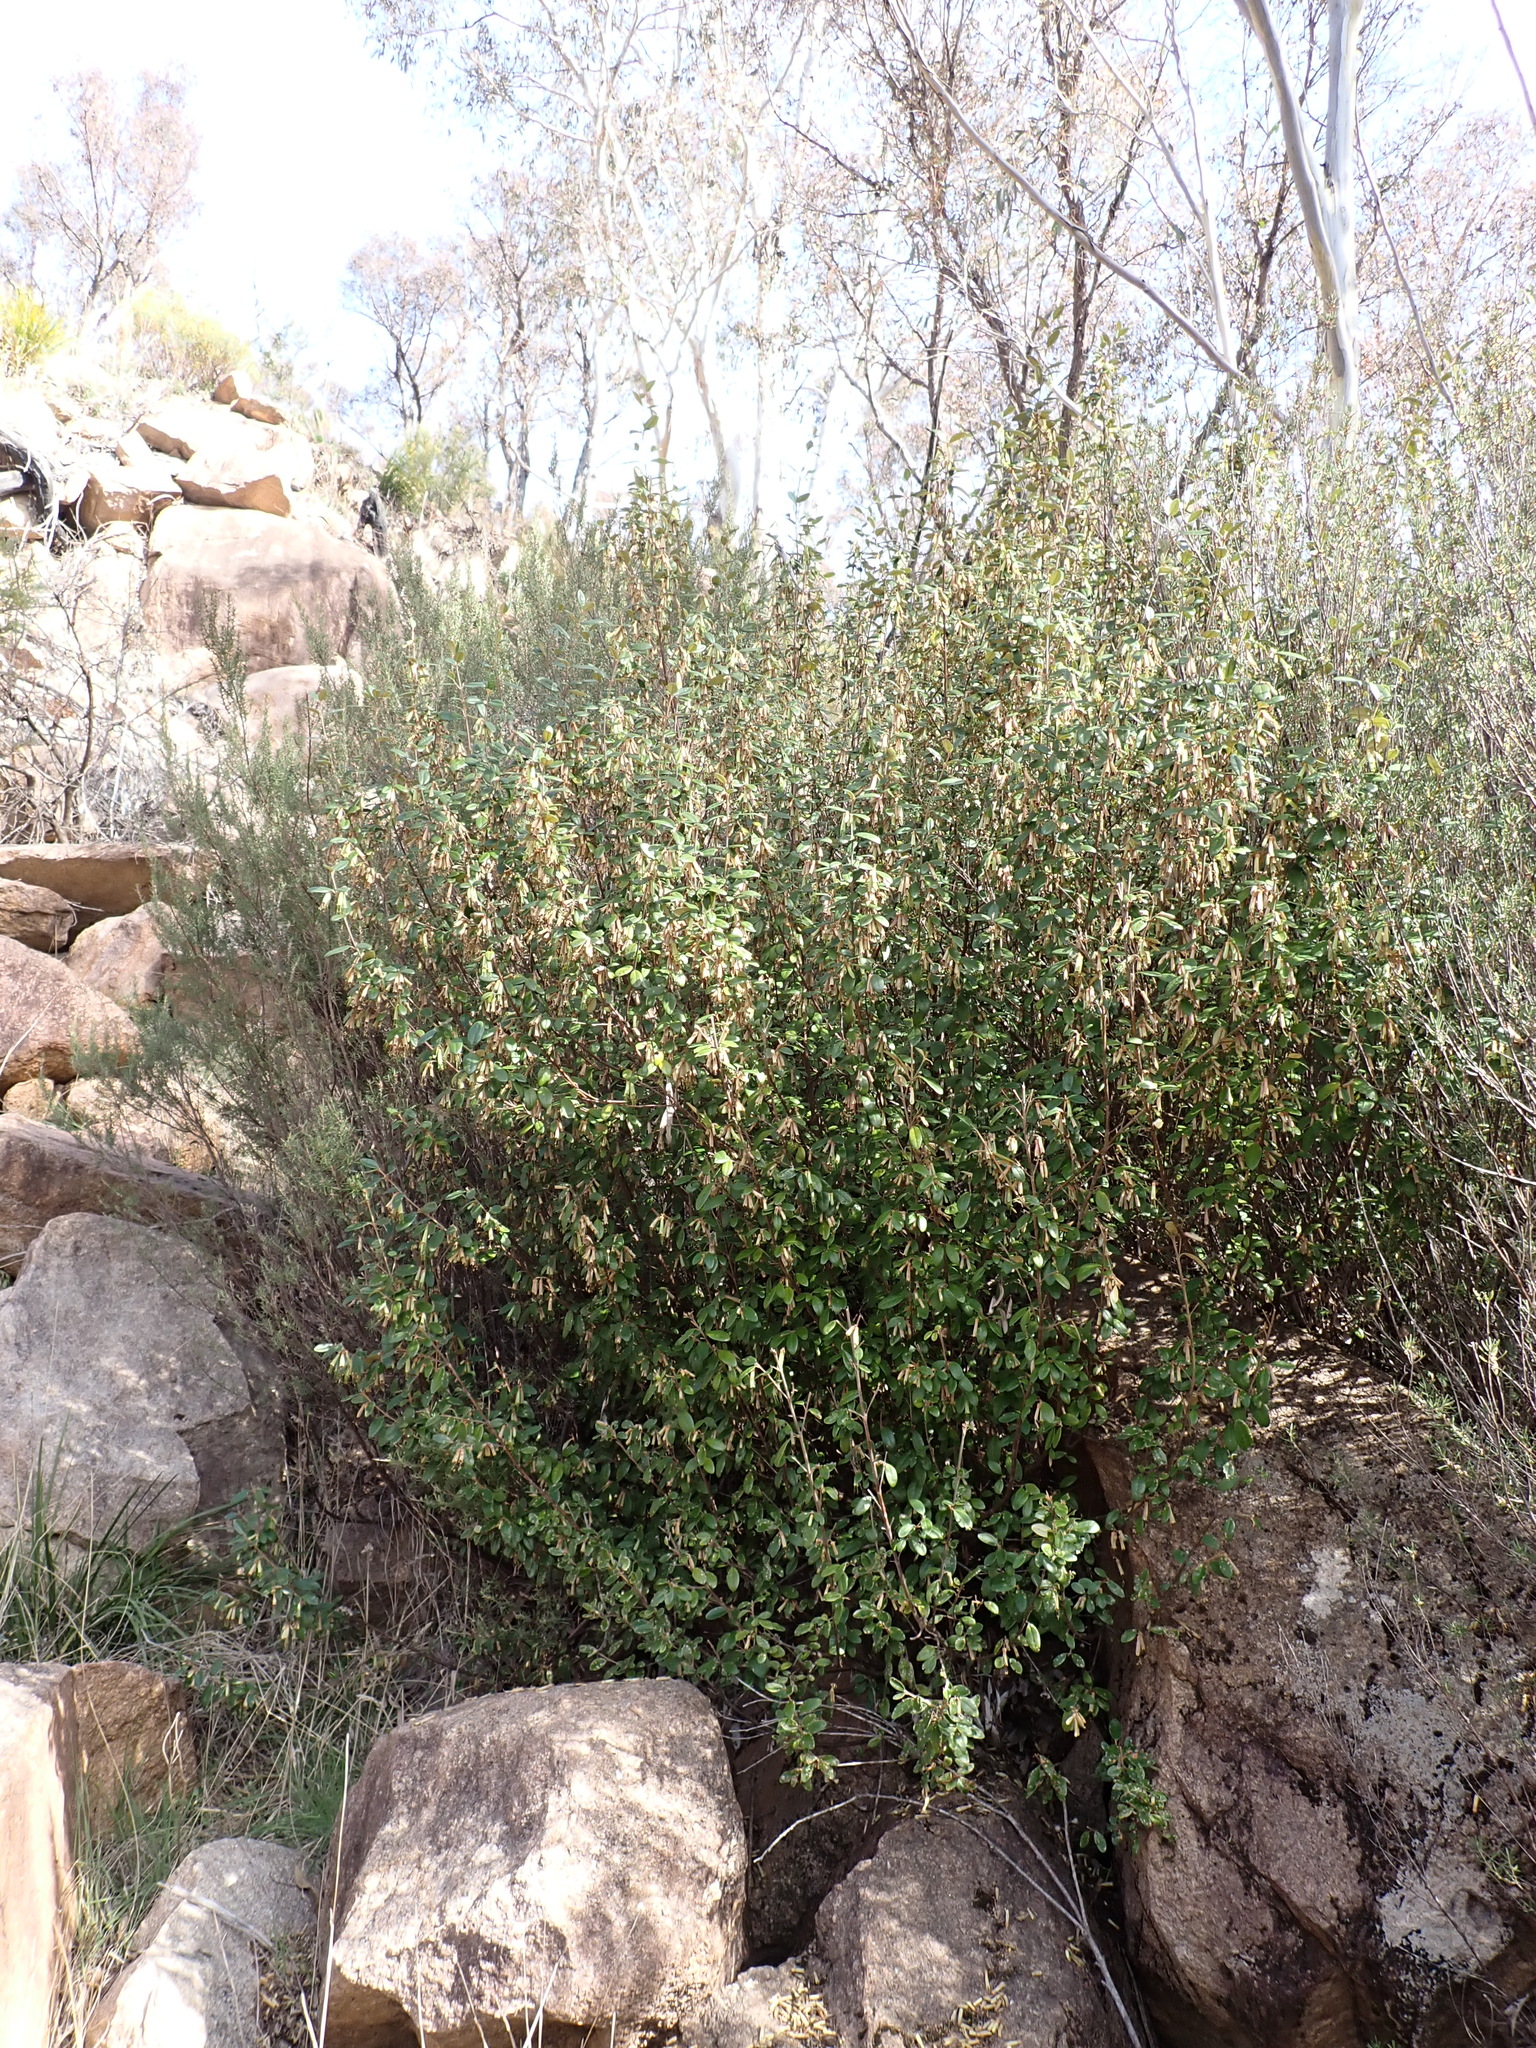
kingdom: Plantae
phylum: Tracheophyta
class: Magnoliopsida
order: Sapindales
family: Rutaceae
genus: Correa
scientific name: Correa lawrenceana
